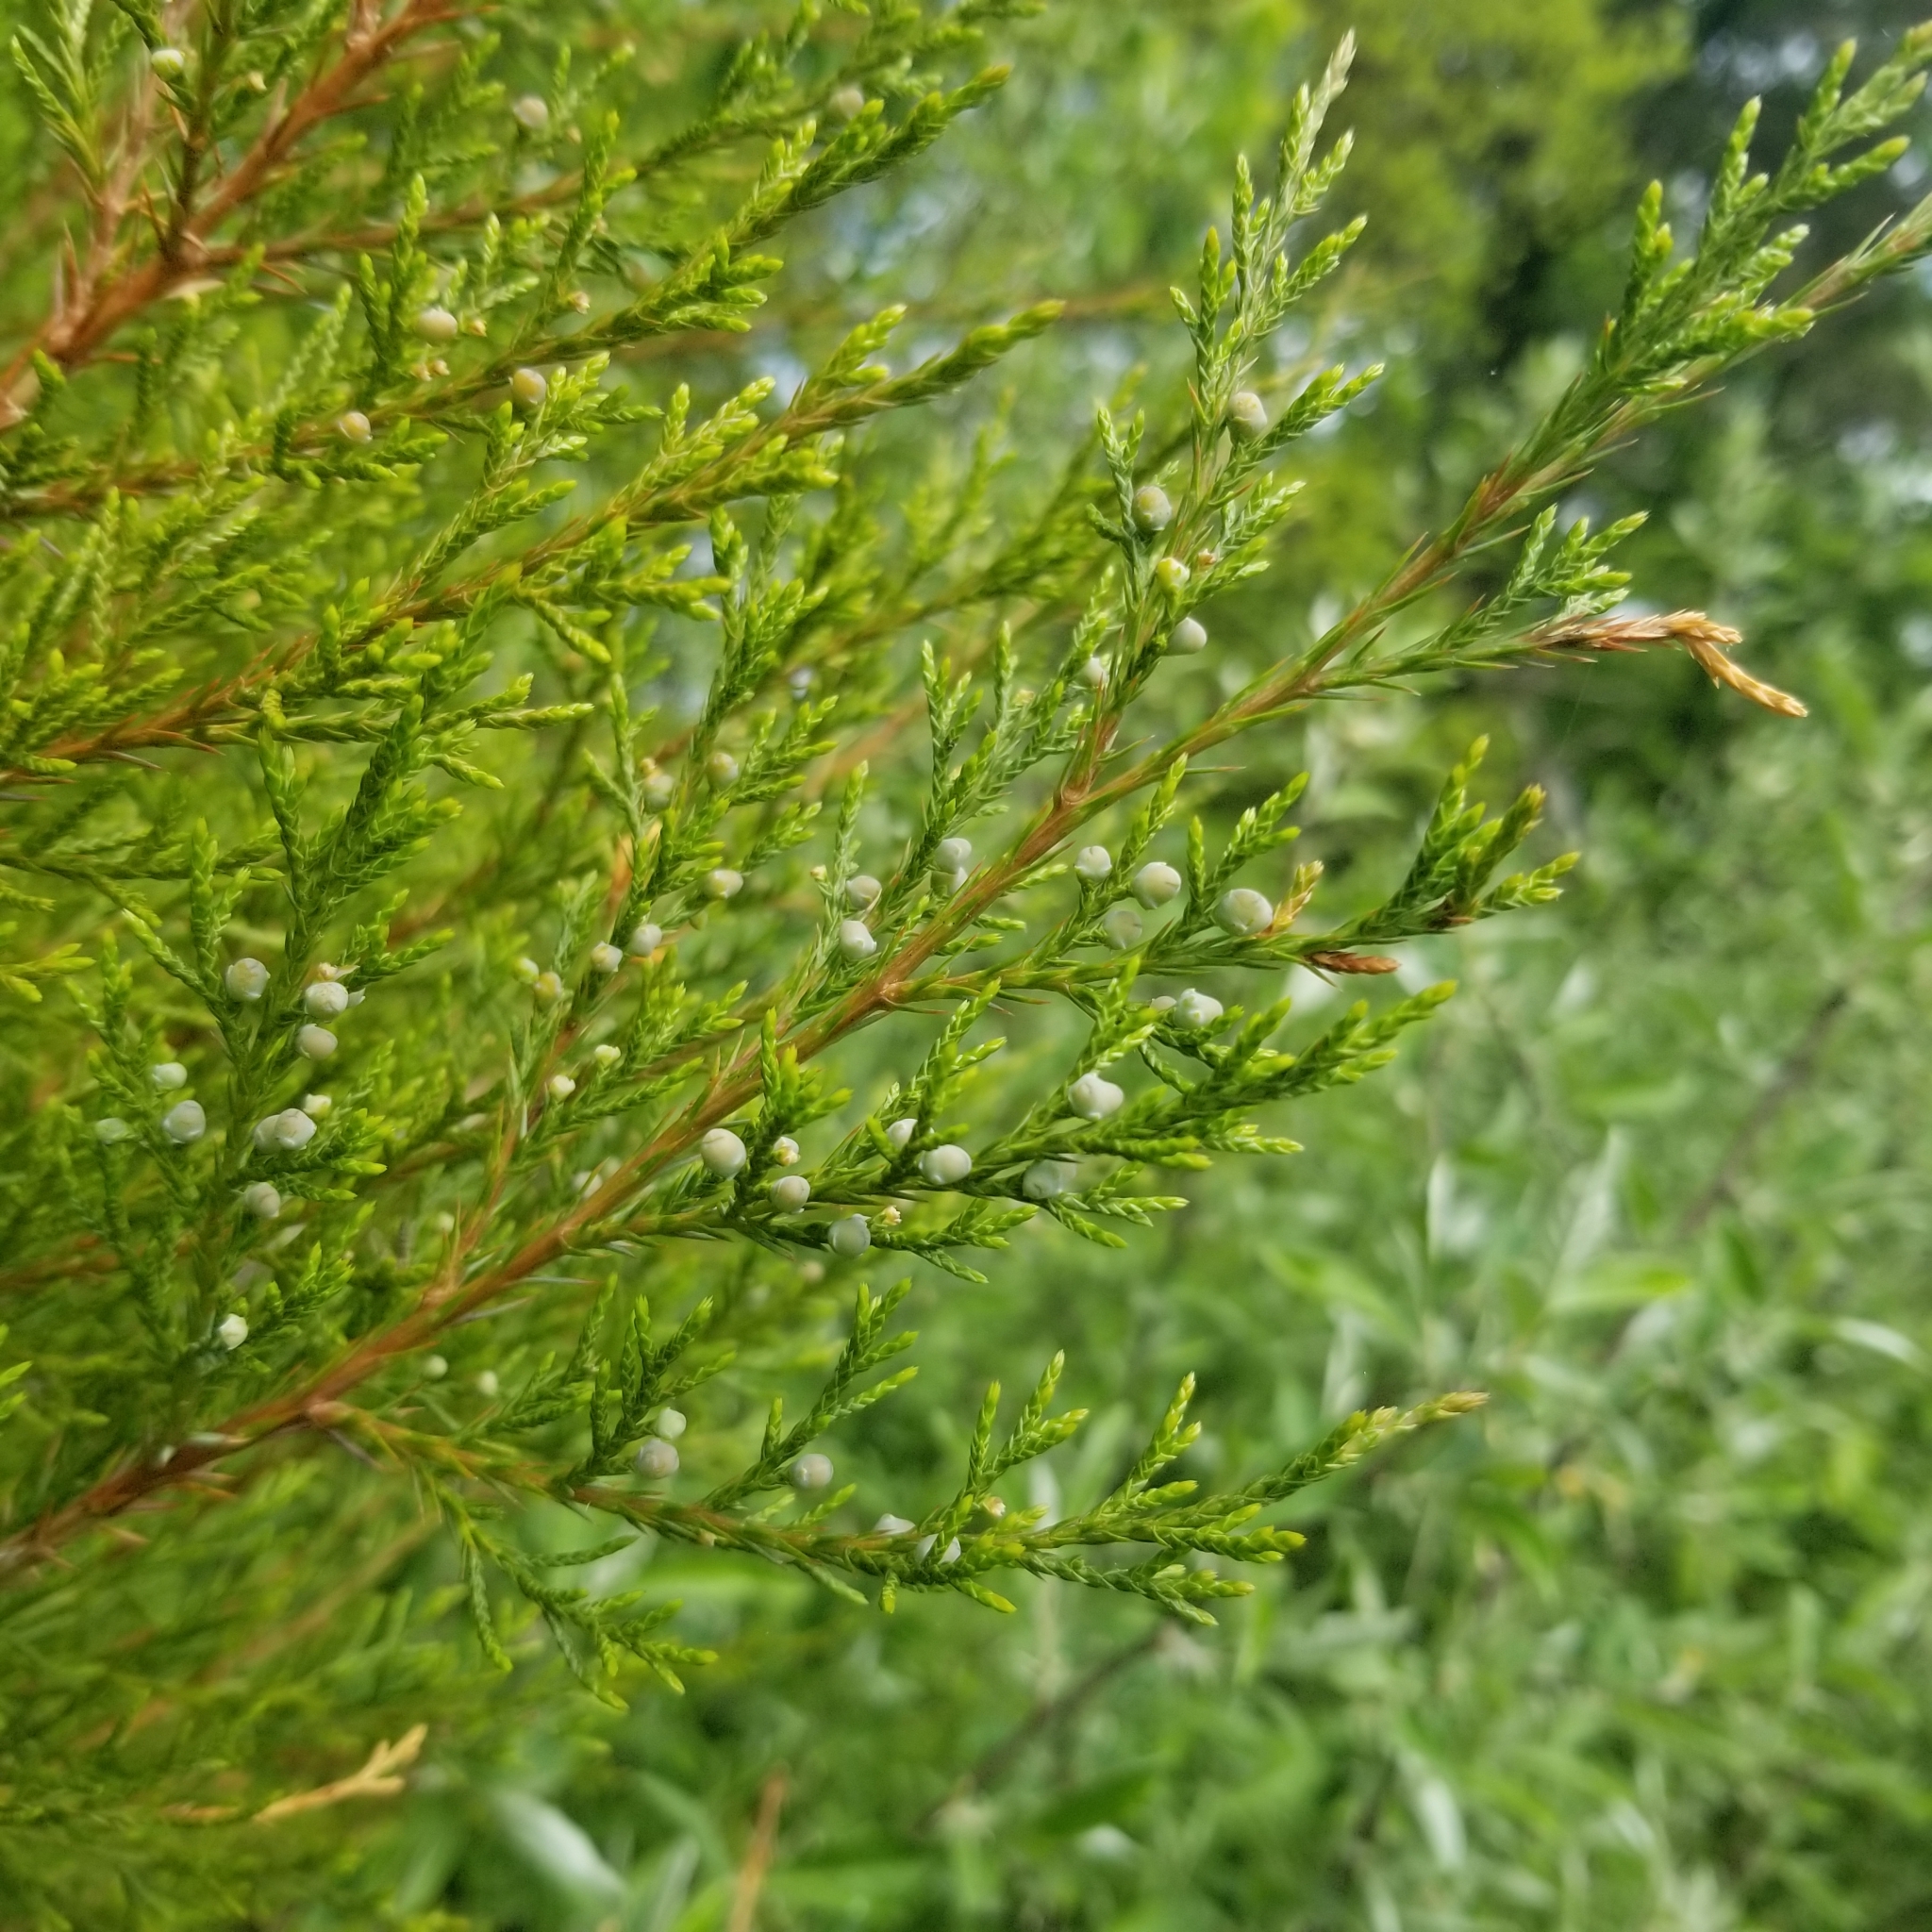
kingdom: Plantae
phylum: Tracheophyta
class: Pinopsida
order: Pinales
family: Cupressaceae
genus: Juniperus
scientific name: Juniperus virginiana
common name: Red juniper
